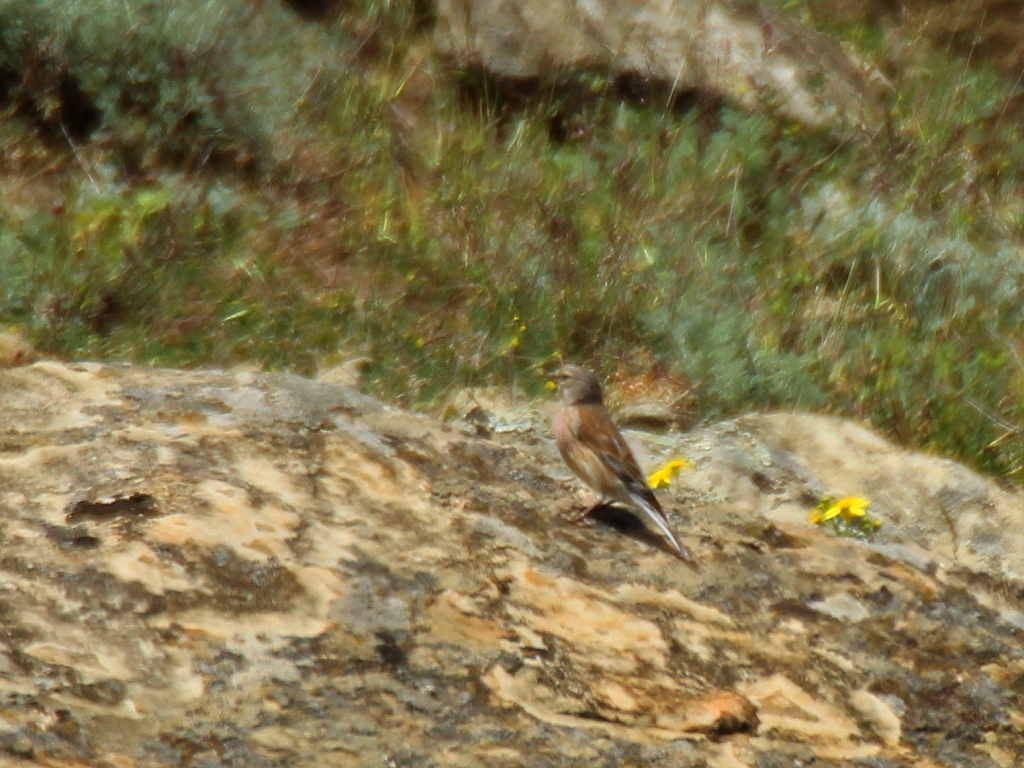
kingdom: Animalia
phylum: Chordata
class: Aves
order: Passeriformes
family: Fringillidae
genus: Linaria
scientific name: Linaria cannabina
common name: Common linnet
